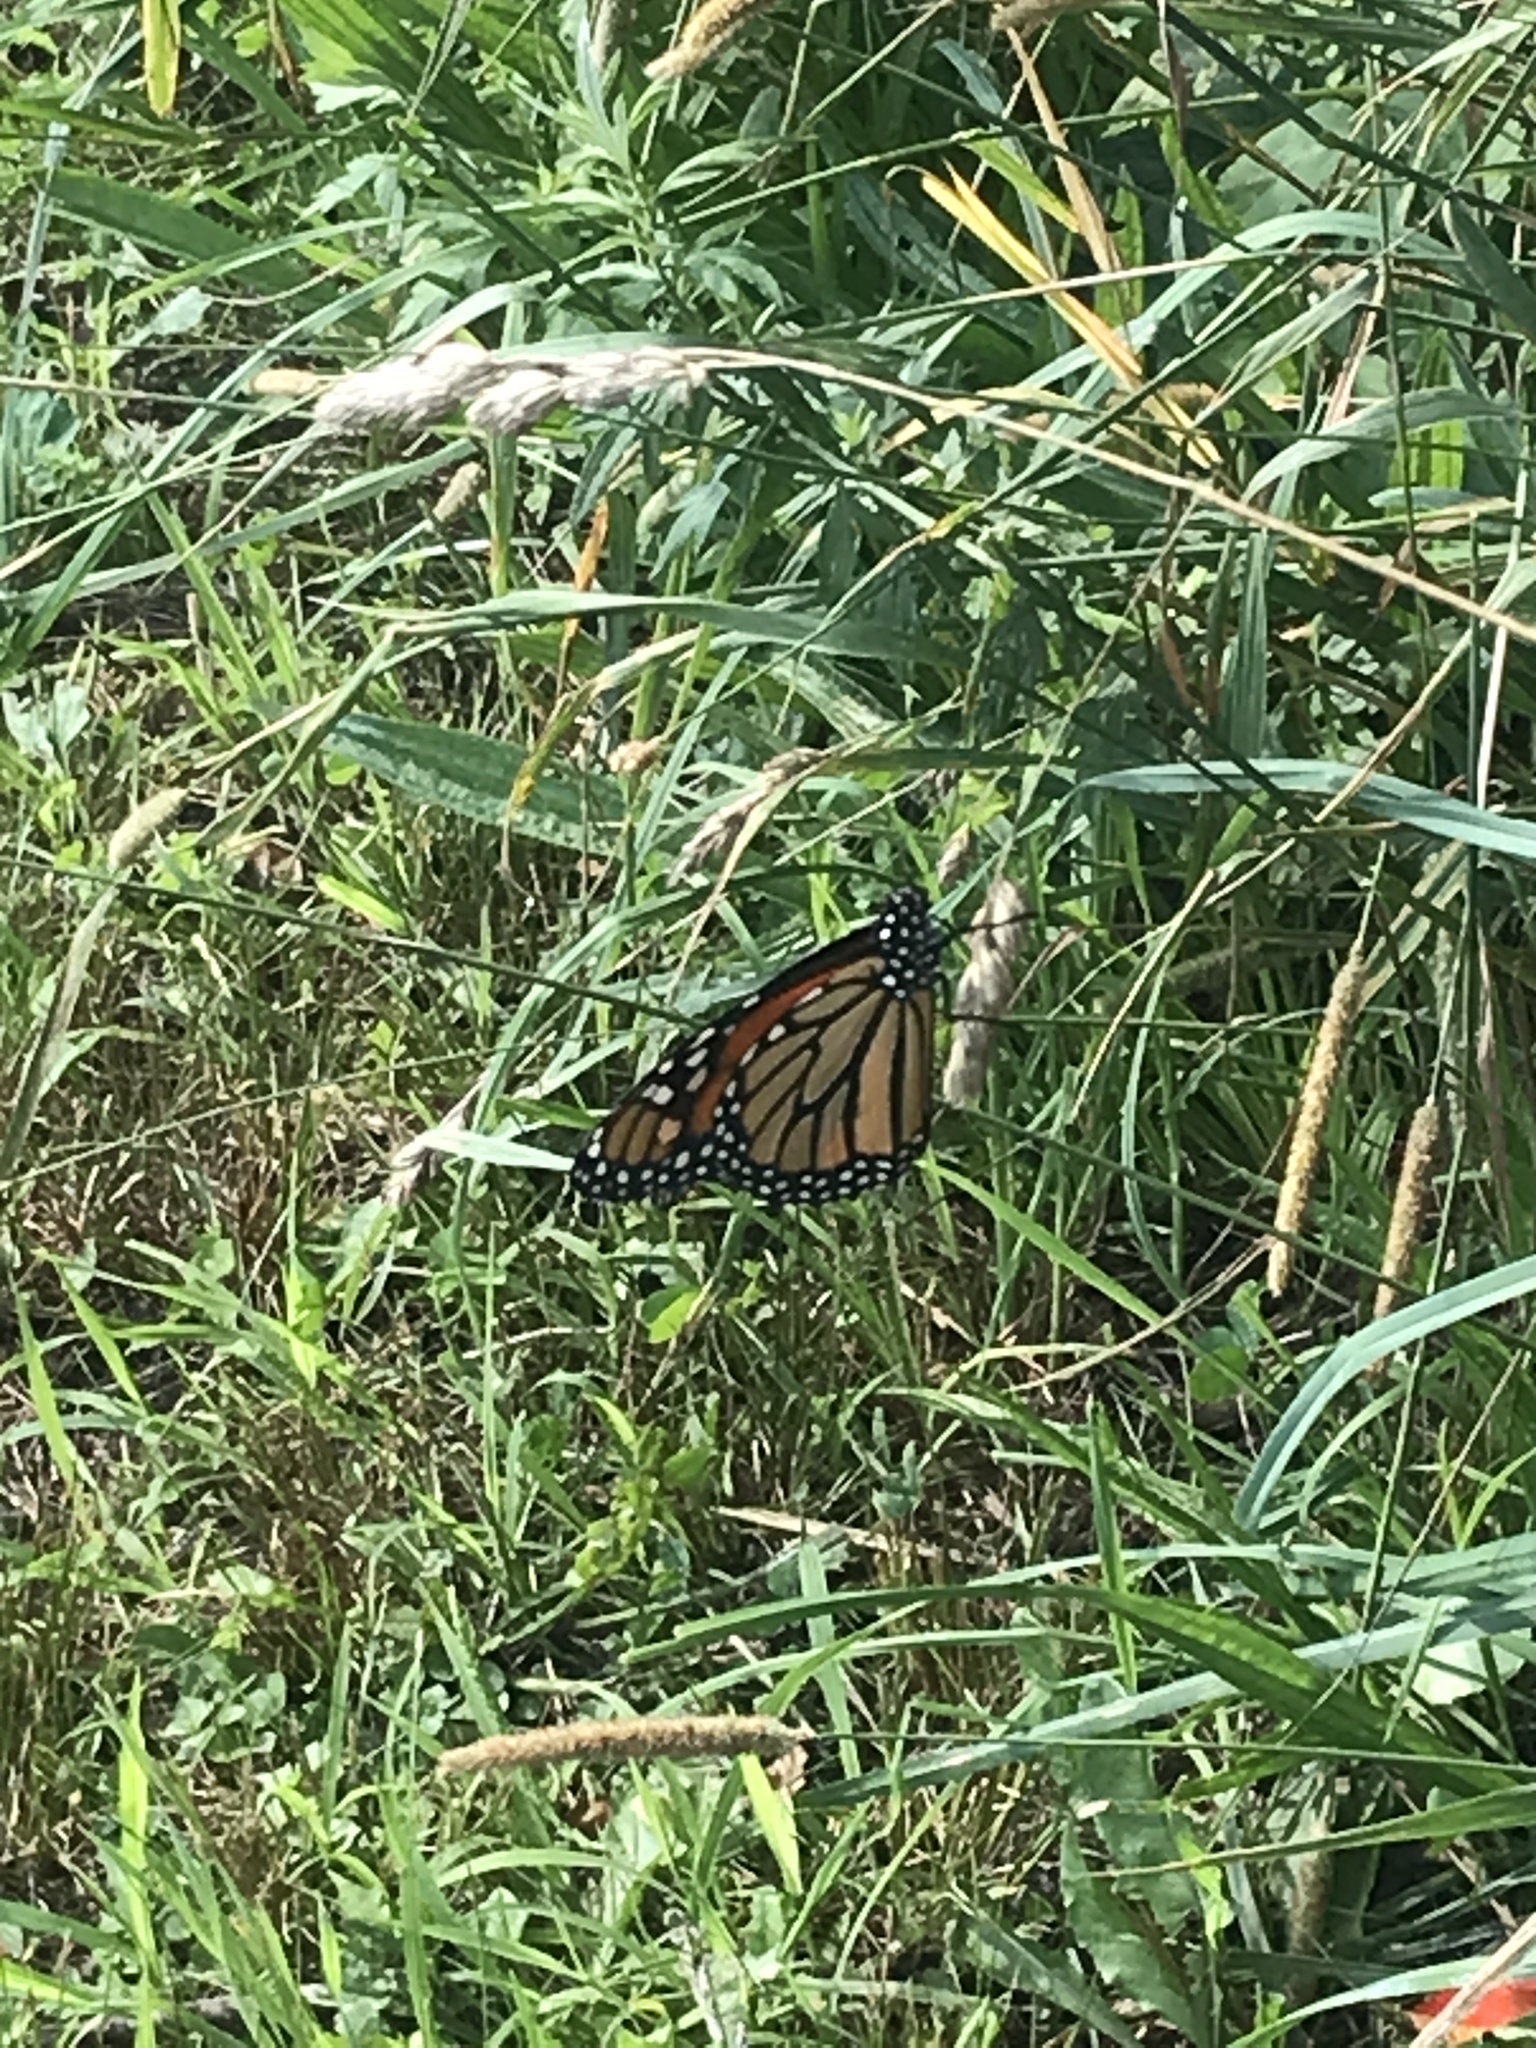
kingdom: Animalia
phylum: Arthropoda
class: Insecta
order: Lepidoptera
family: Nymphalidae
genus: Danaus
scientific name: Danaus plexippus
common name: Monarch
